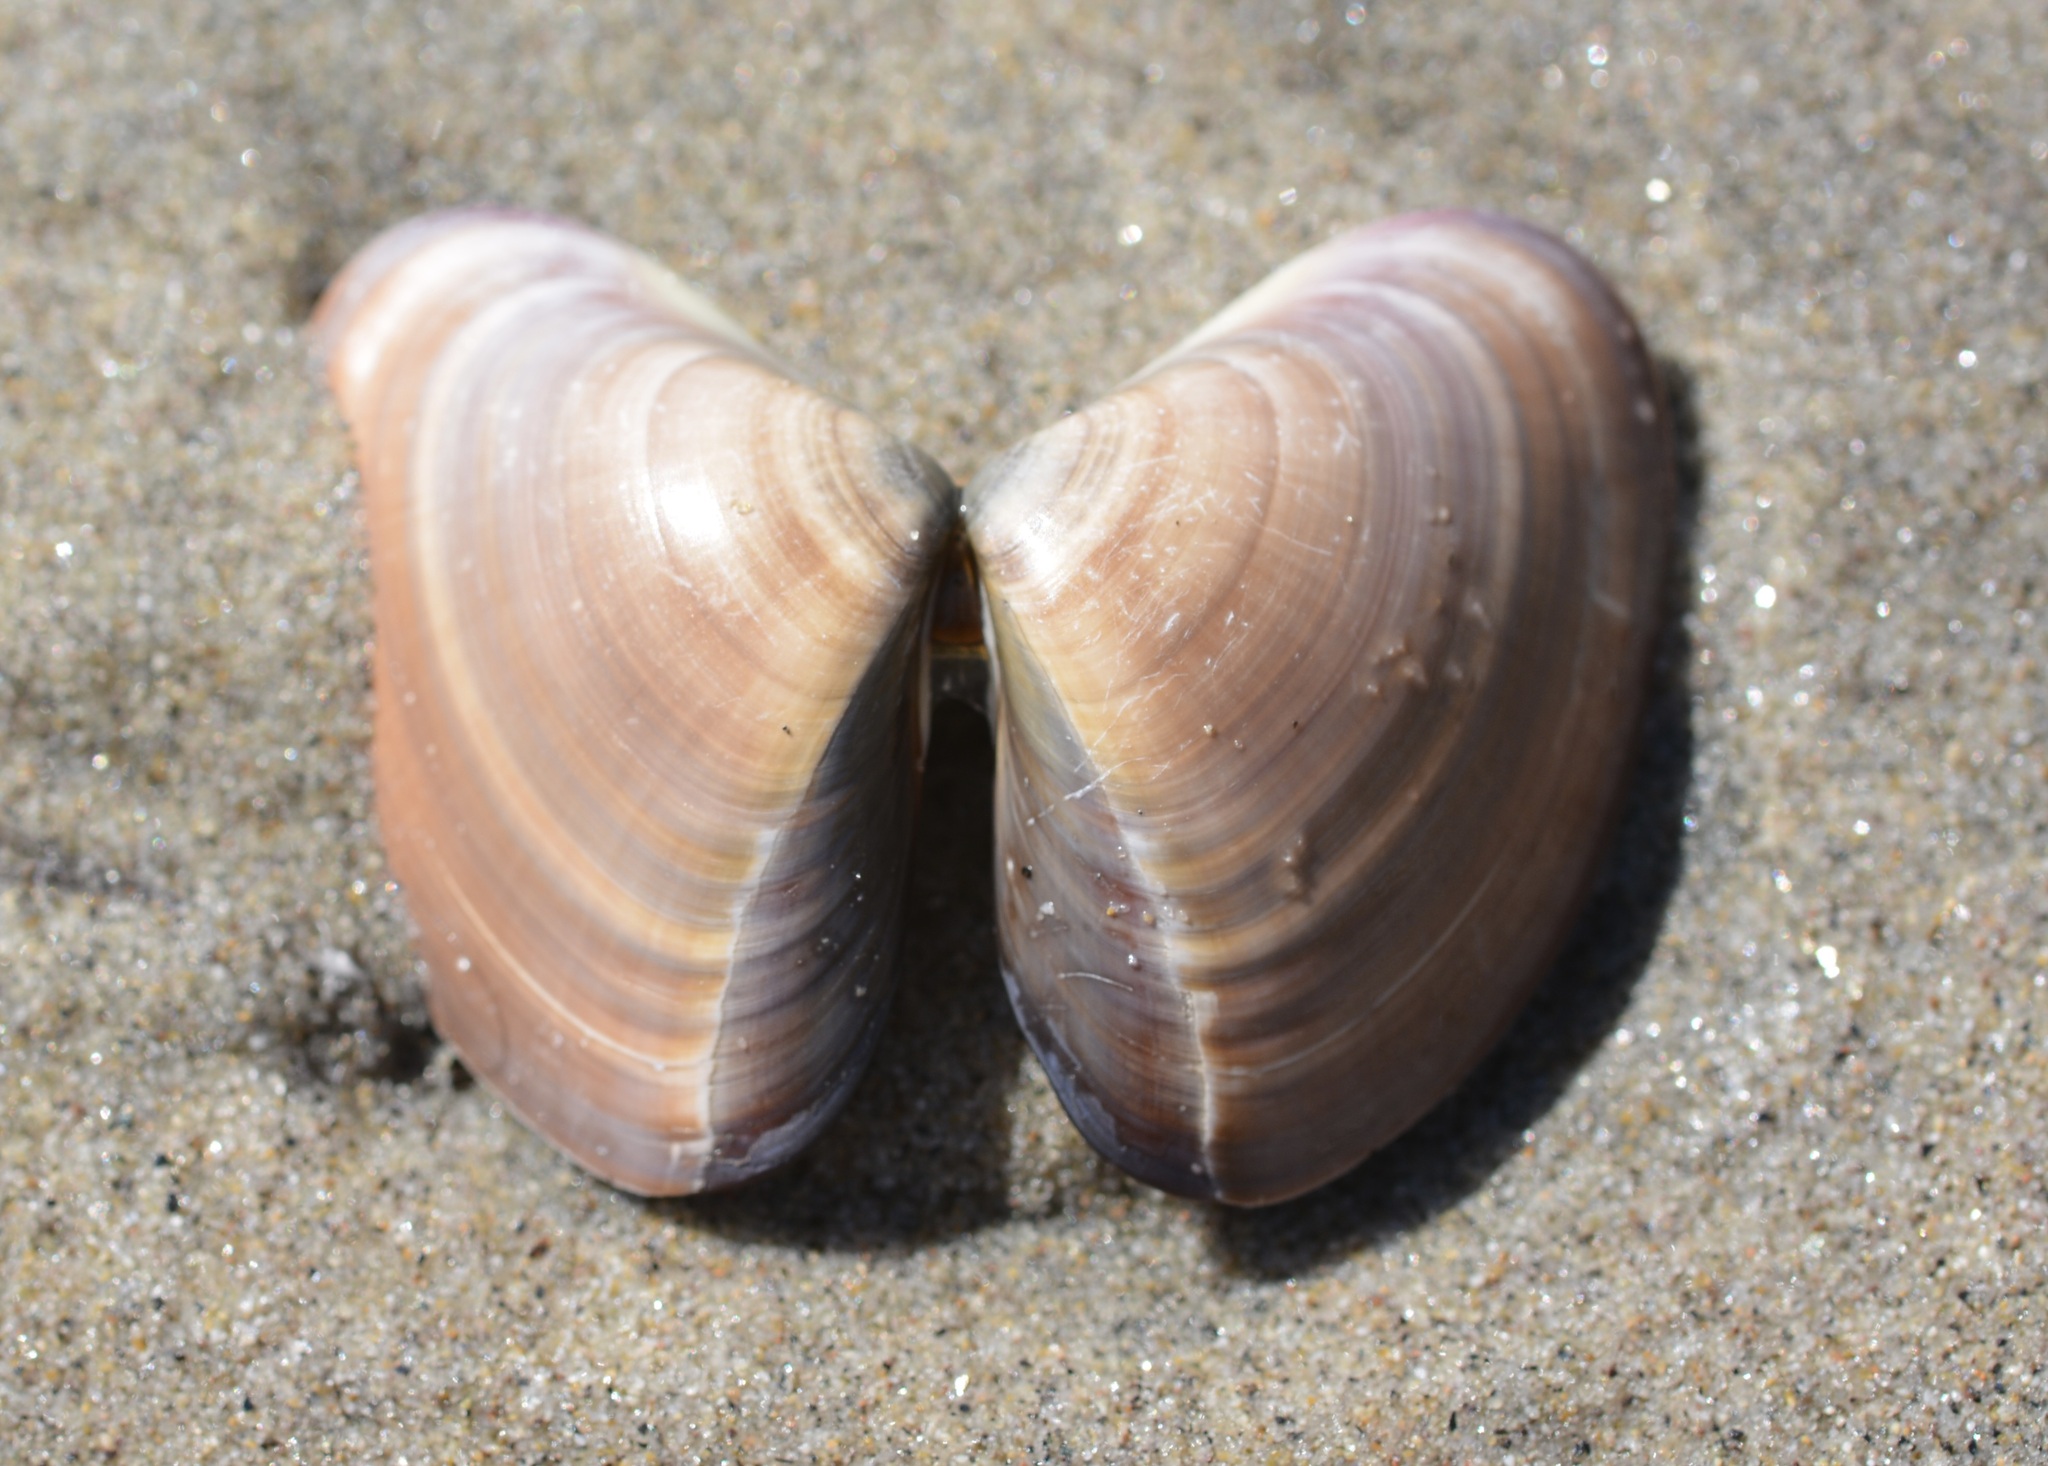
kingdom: Animalia
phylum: Mollusca
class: Bivalvia
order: Venerida
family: Veneridae
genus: Tivela
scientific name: Tivela stultorum
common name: Pismo clam
